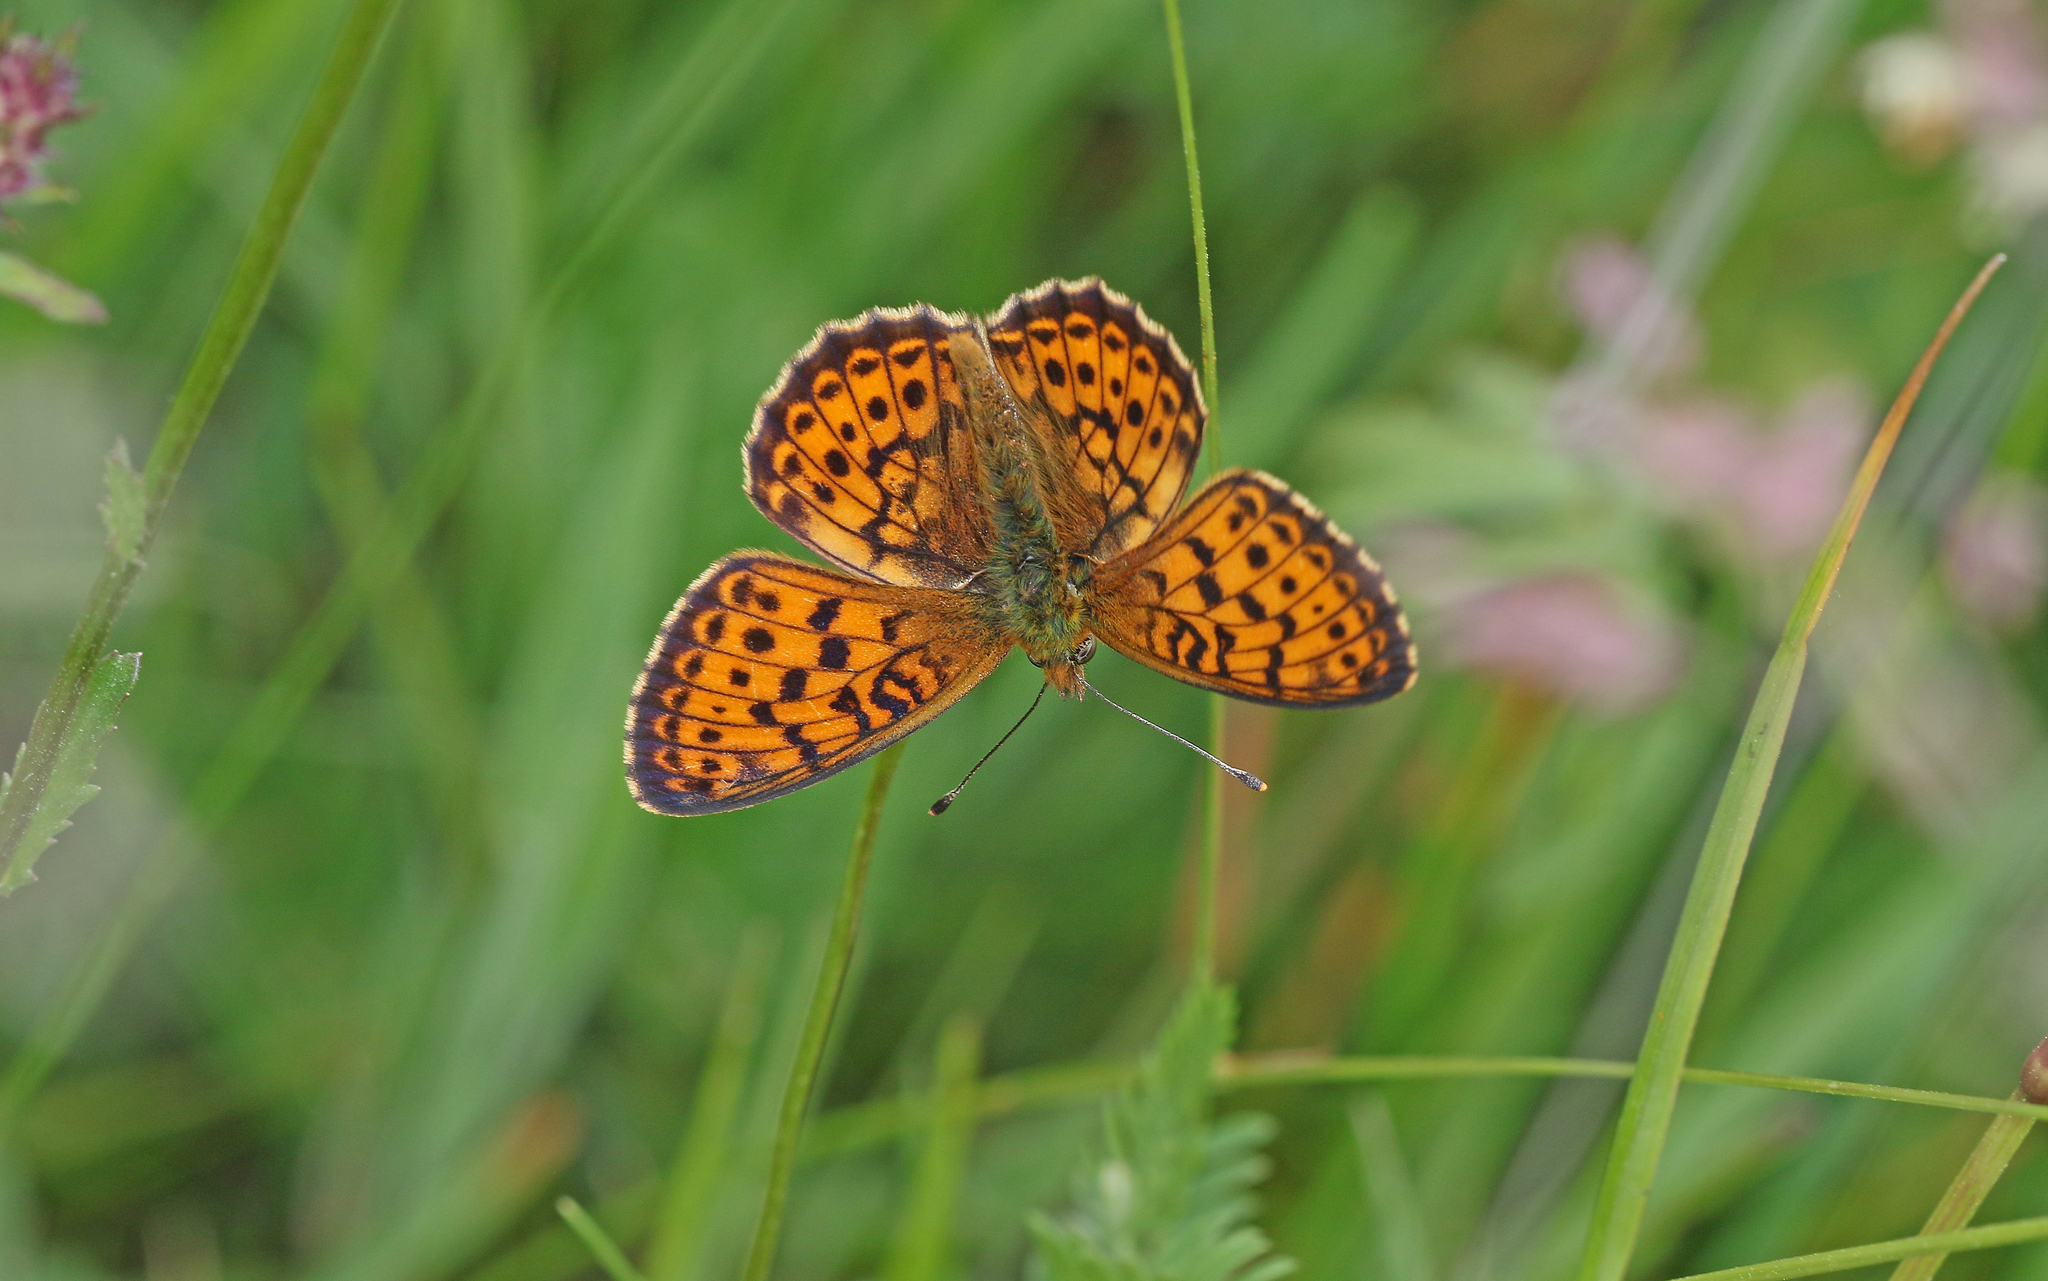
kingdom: Animalia
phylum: Arthropoda
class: Insecta
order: Lepidoptera
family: Nymphalidae
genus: Brenthis
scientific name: Brenthis ino
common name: Lesser marbled fritillary
